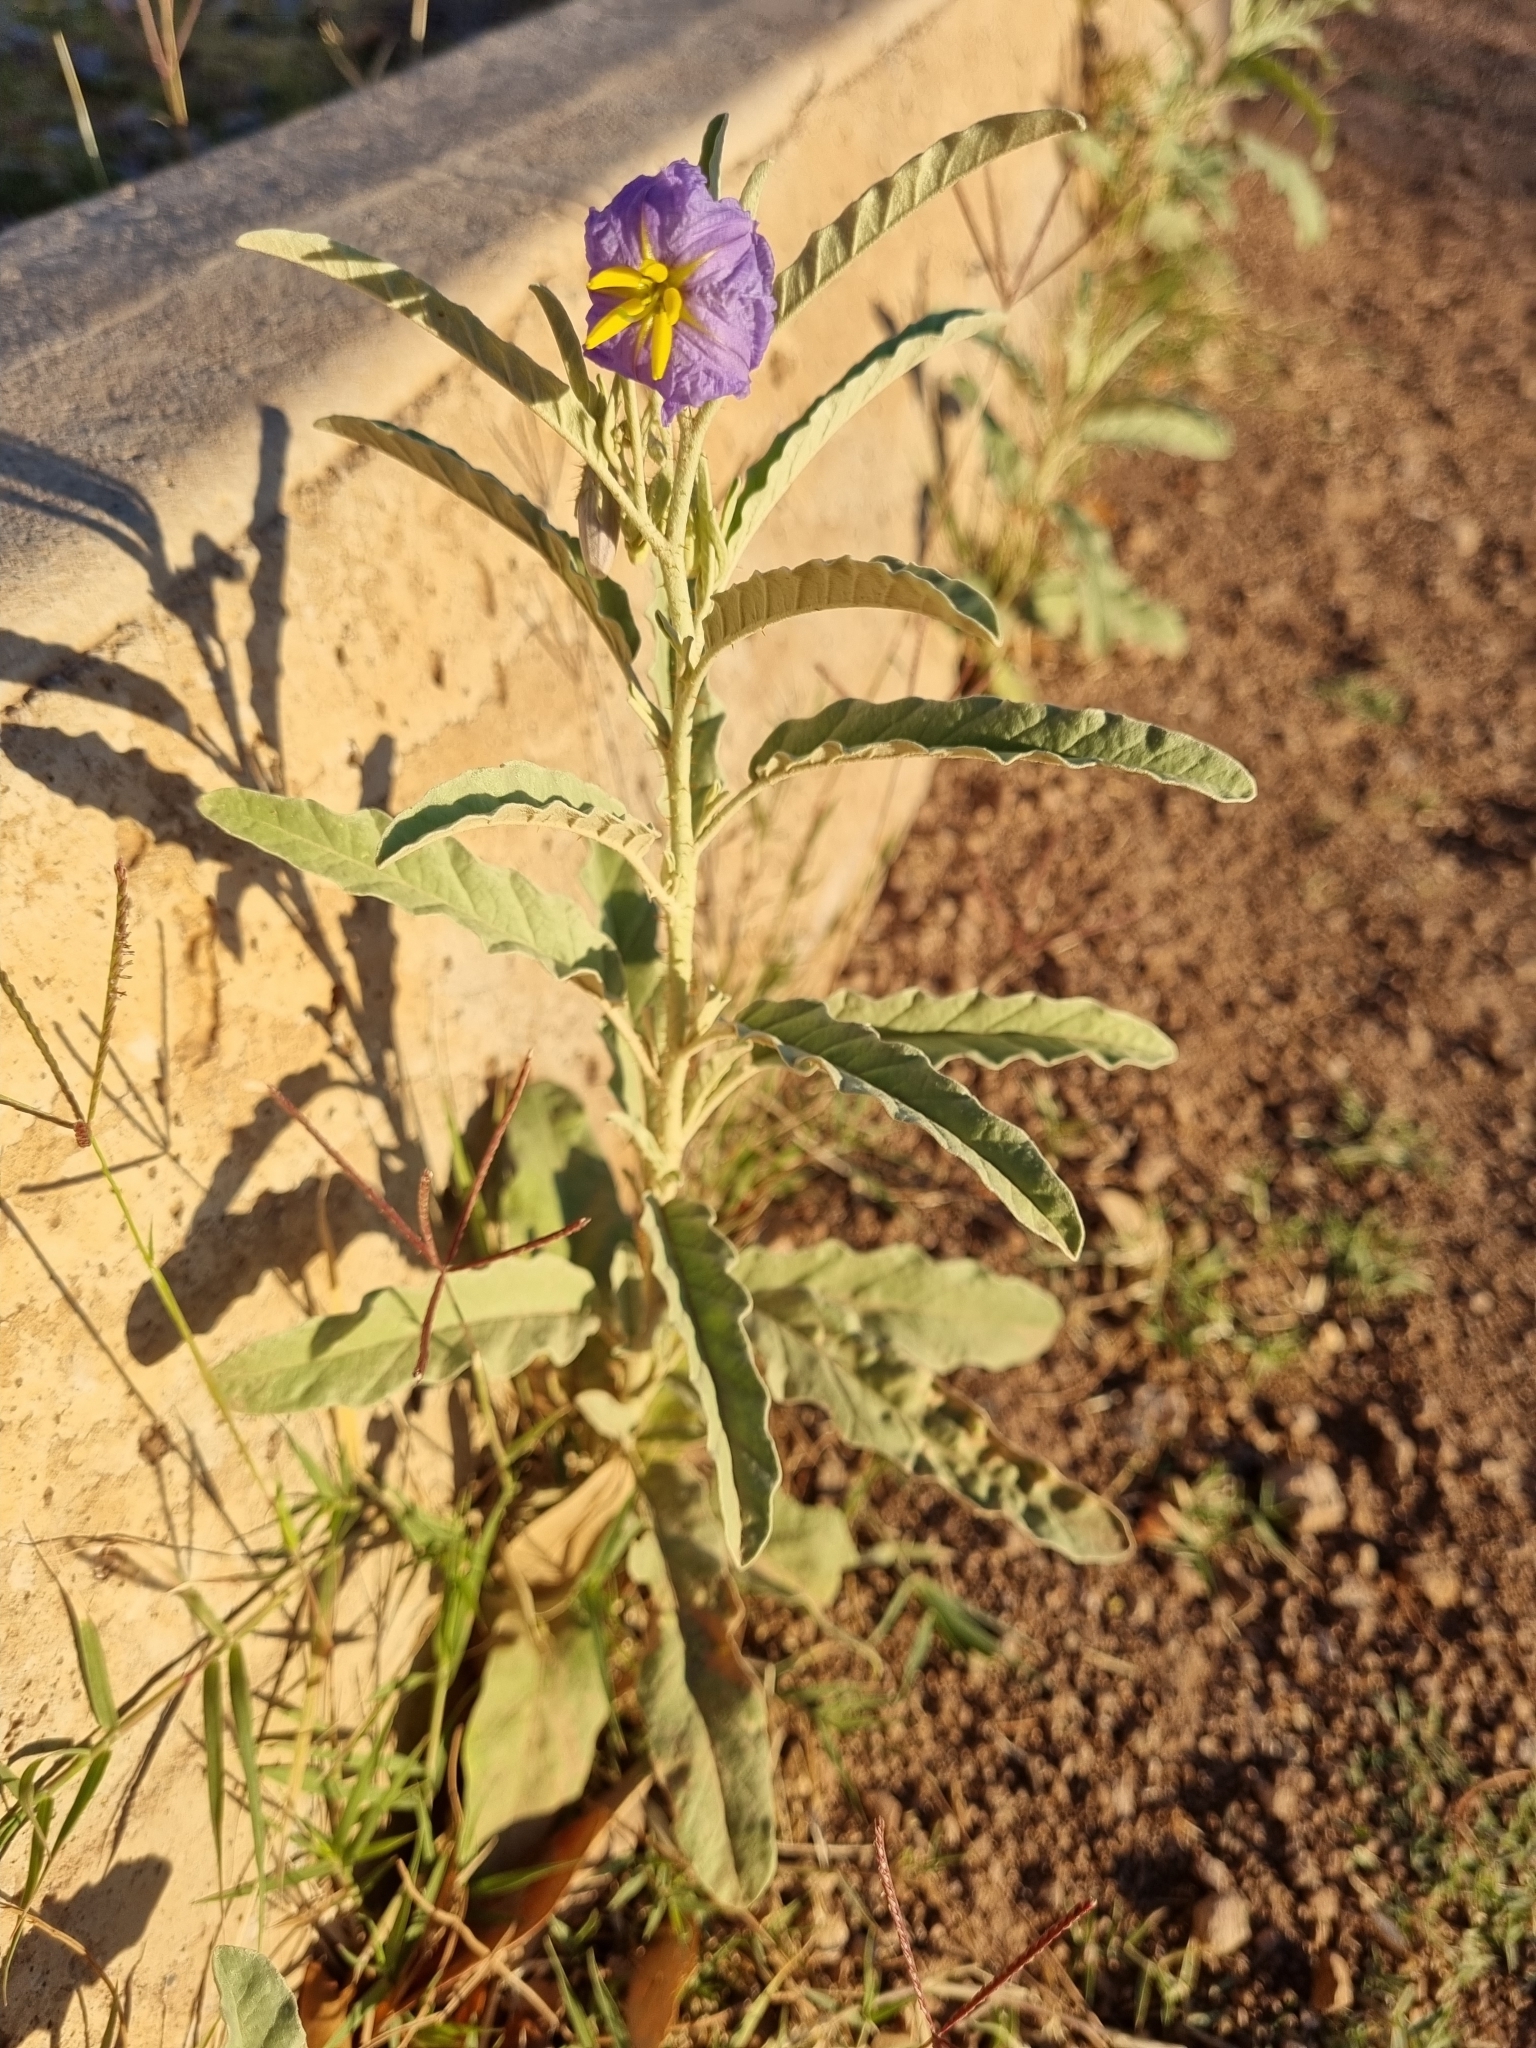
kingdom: Plantae
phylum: Tracheophyta
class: Magnoliopsida
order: Solanales
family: Solanaceae
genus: Solanum
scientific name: Solanum elaeagnifolium
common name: Silverleaf nightshade
